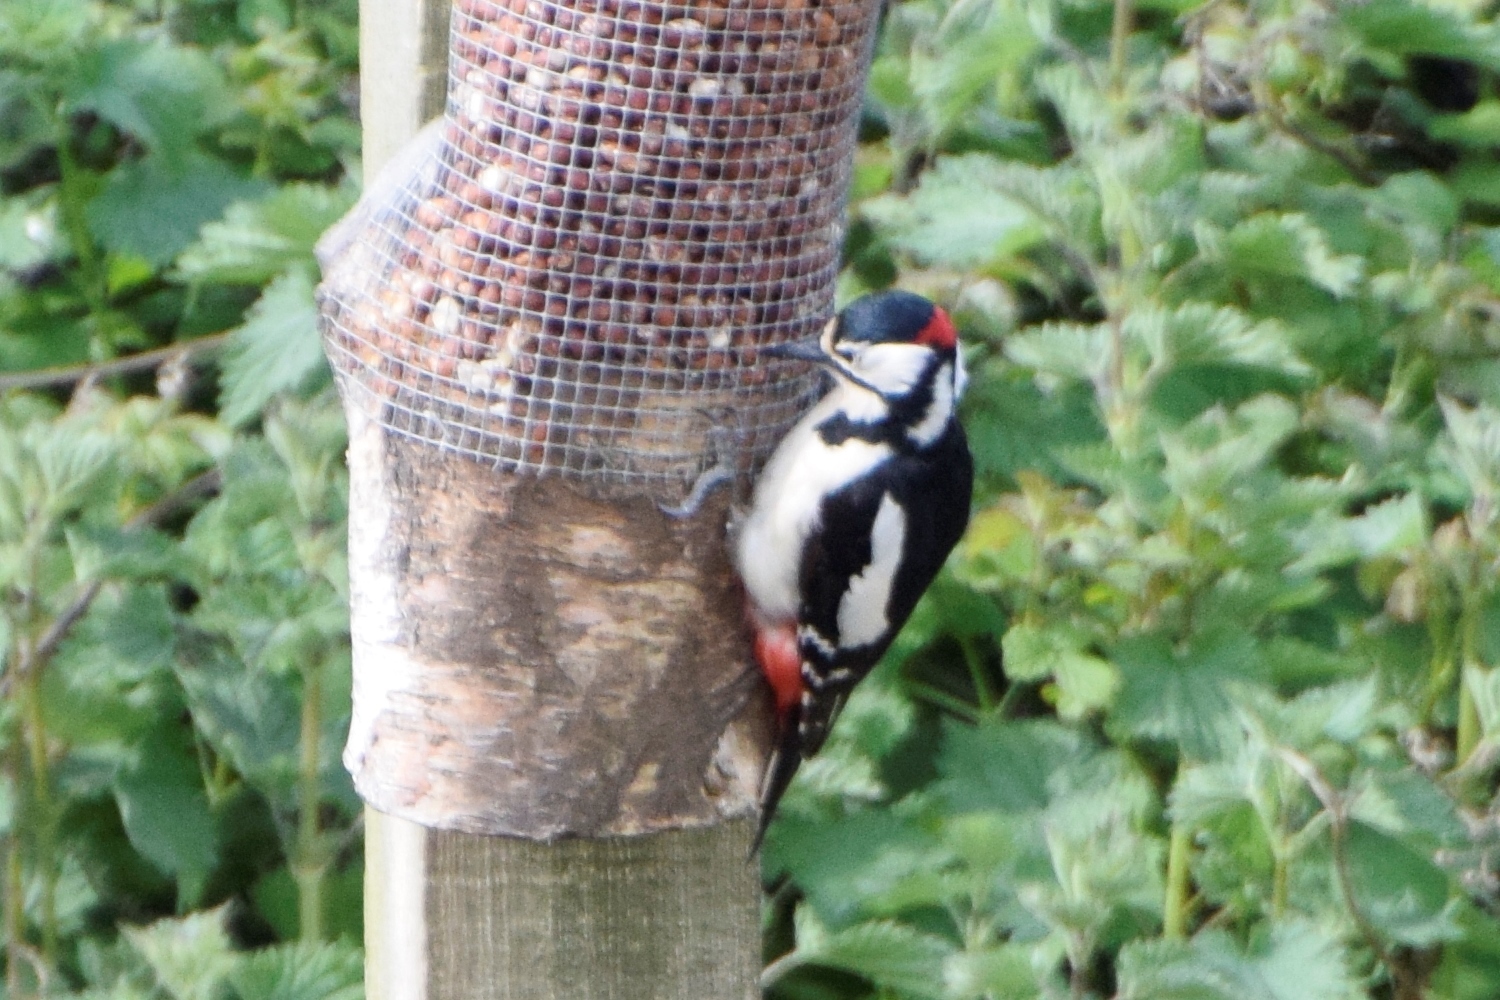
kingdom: Animalia
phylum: Chordata
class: Aves
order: Piciformes
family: Picidae
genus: Dendrocopos
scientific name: Dendrocopos major
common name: Great spotted woodpecker
